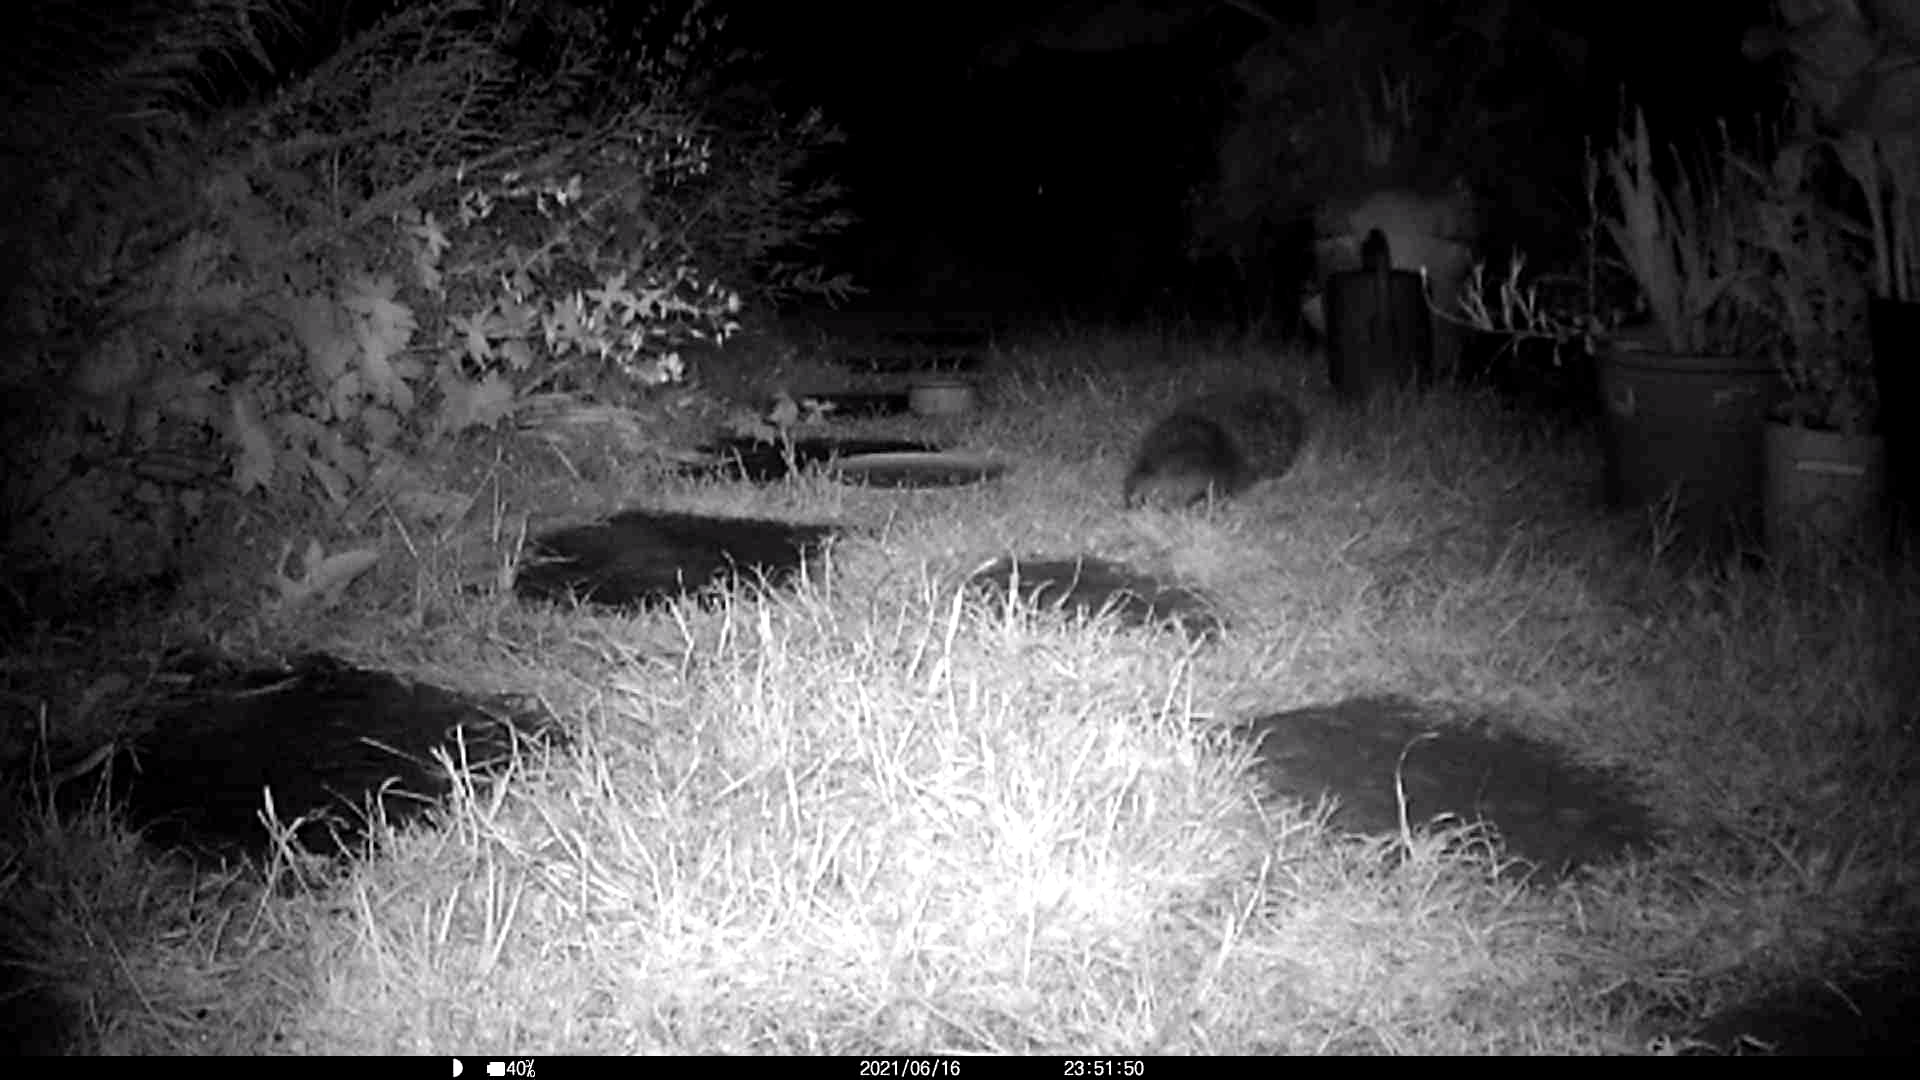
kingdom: Animalia
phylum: Chordata
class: Mammalia
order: Erinaceomorpha
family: Erinaceidae
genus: Erinaceus
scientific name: Erinaceus europaeus
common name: West european hedgehog
